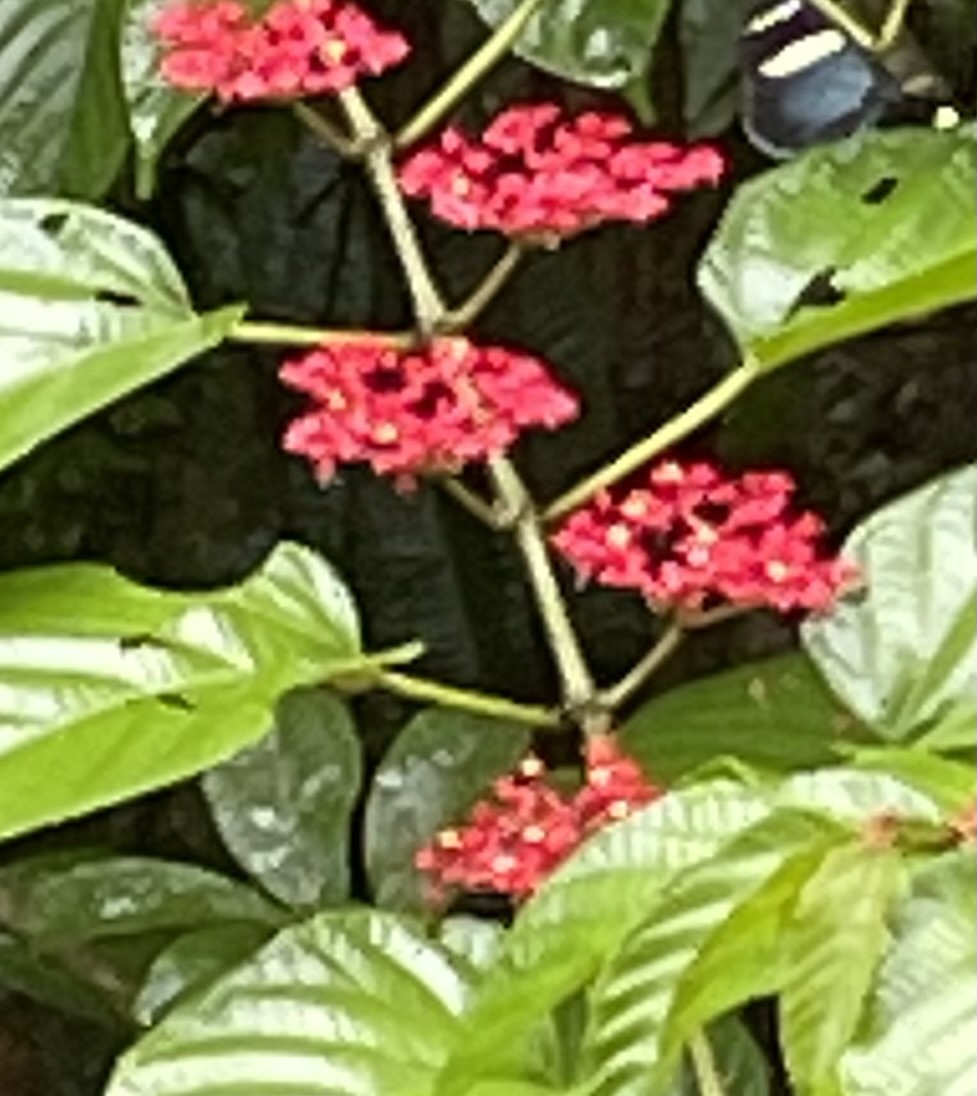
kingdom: Plantae
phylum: Tracheophyta
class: Magnoliopsida
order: Vitales
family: Vitaceae
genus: Cissus
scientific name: Cissus erosa
